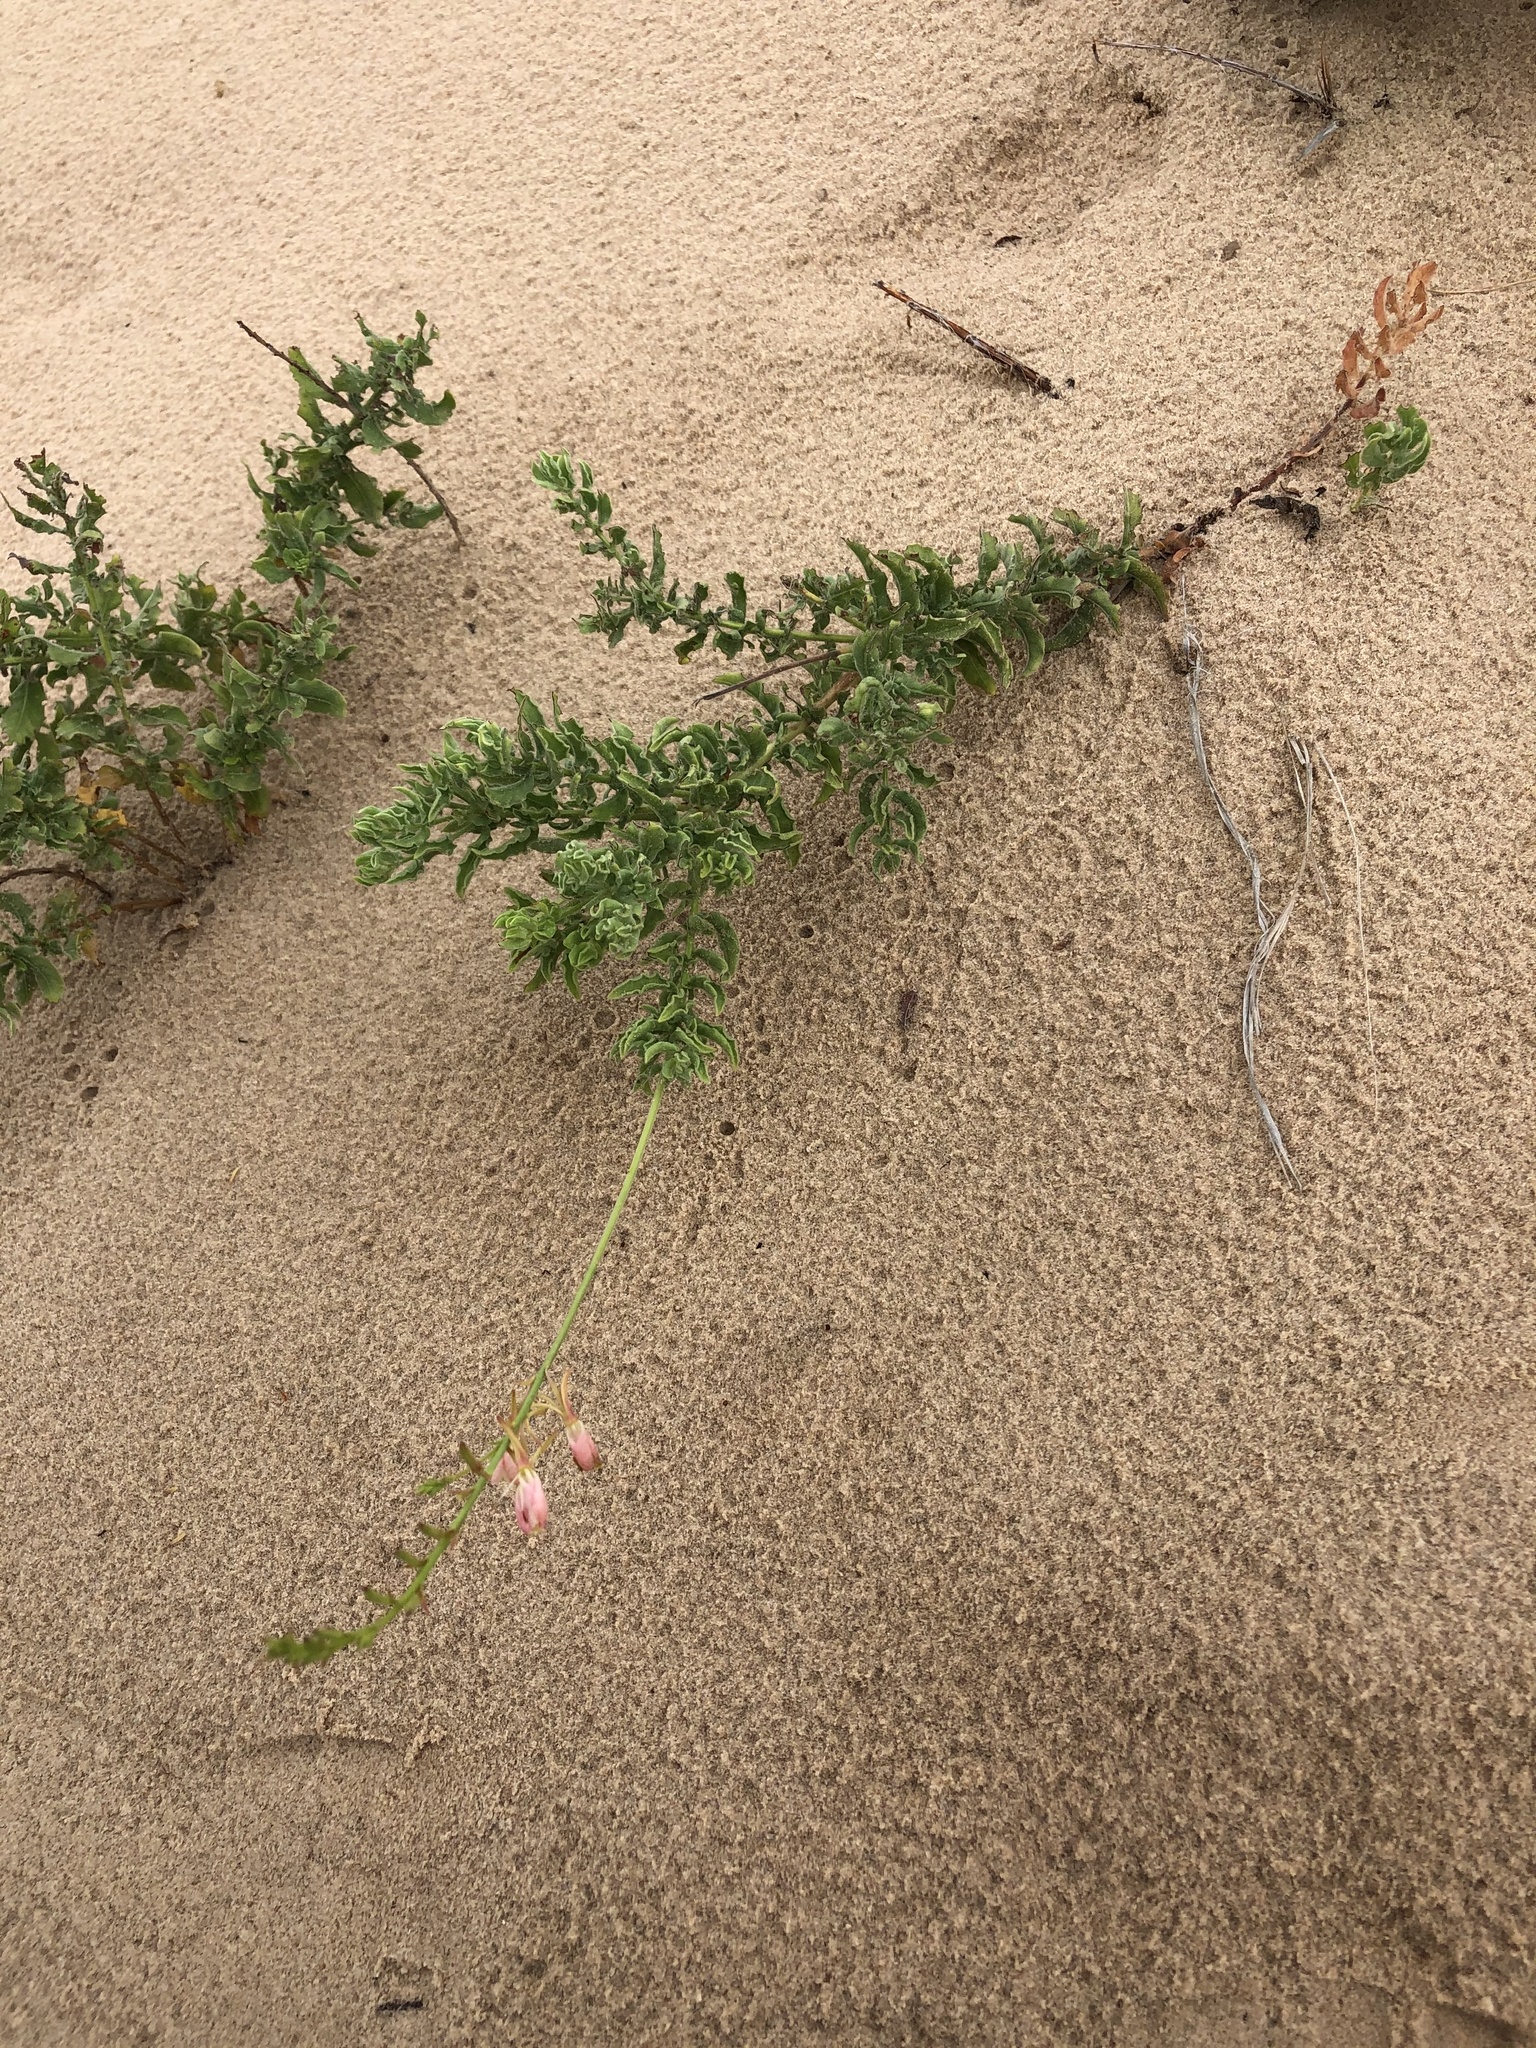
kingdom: Plantae
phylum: Tracheophyta
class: Magnoliopsida
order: Myrtales
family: Onagraceae
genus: Oenothera
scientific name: Oenothera cinerea
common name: Woolly beeblossom
